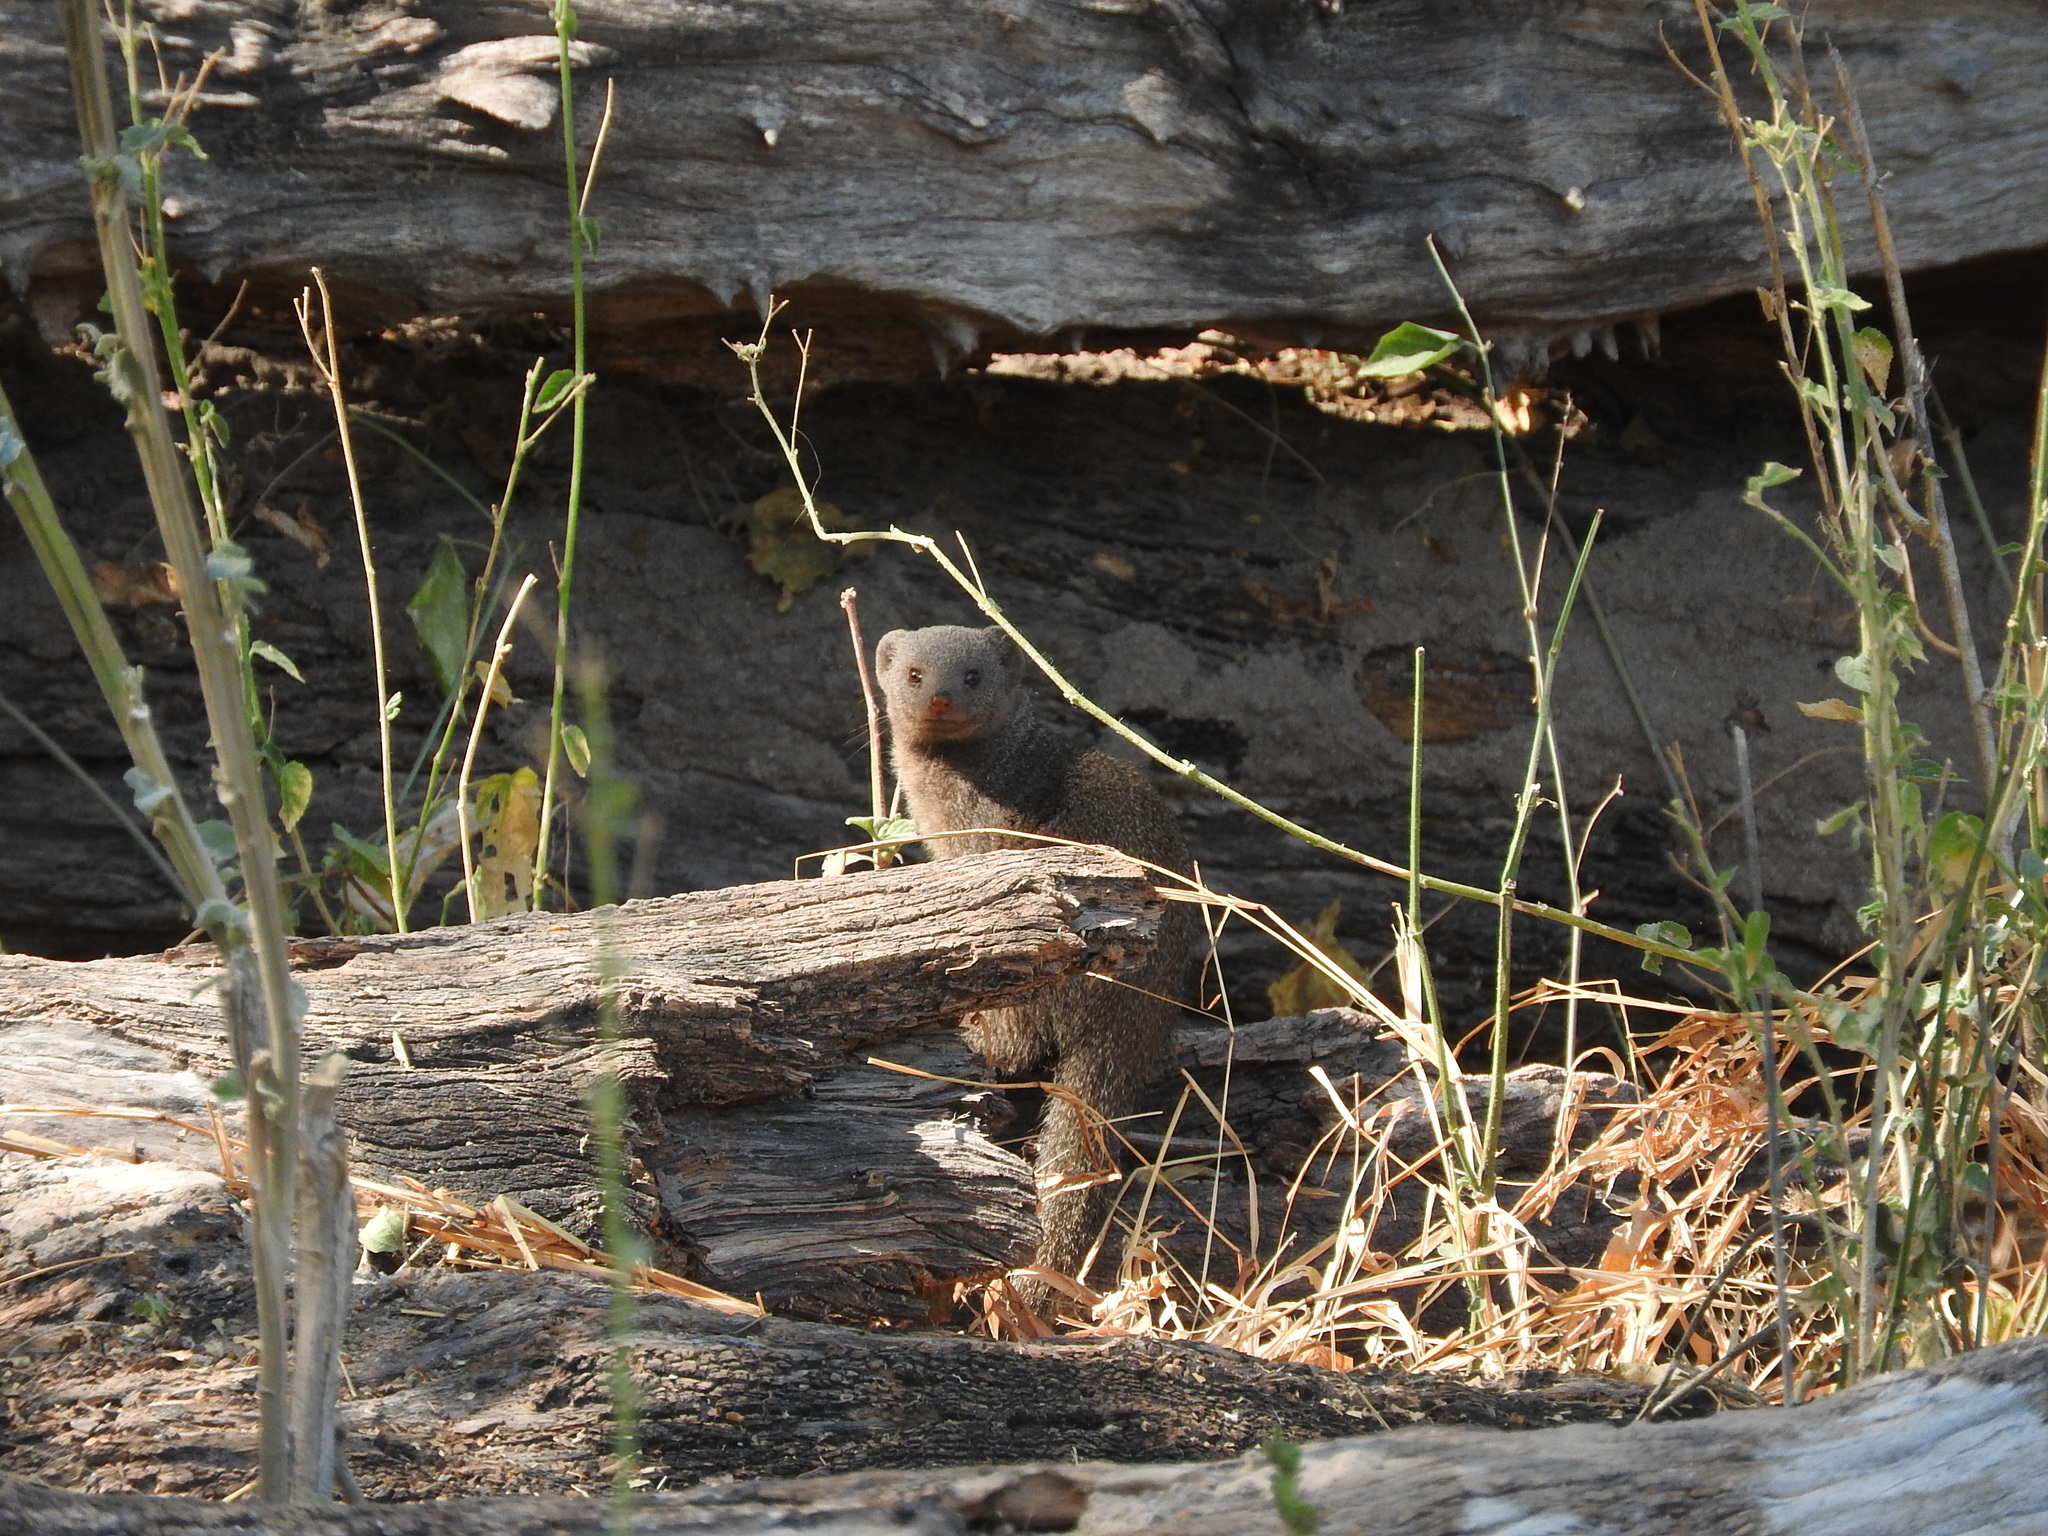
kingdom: Animalia
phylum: Chordata
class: Mammalia
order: Carnivora
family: Herpestidae
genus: Helogale
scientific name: Helogale parvula
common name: Common dwarf mongoose
